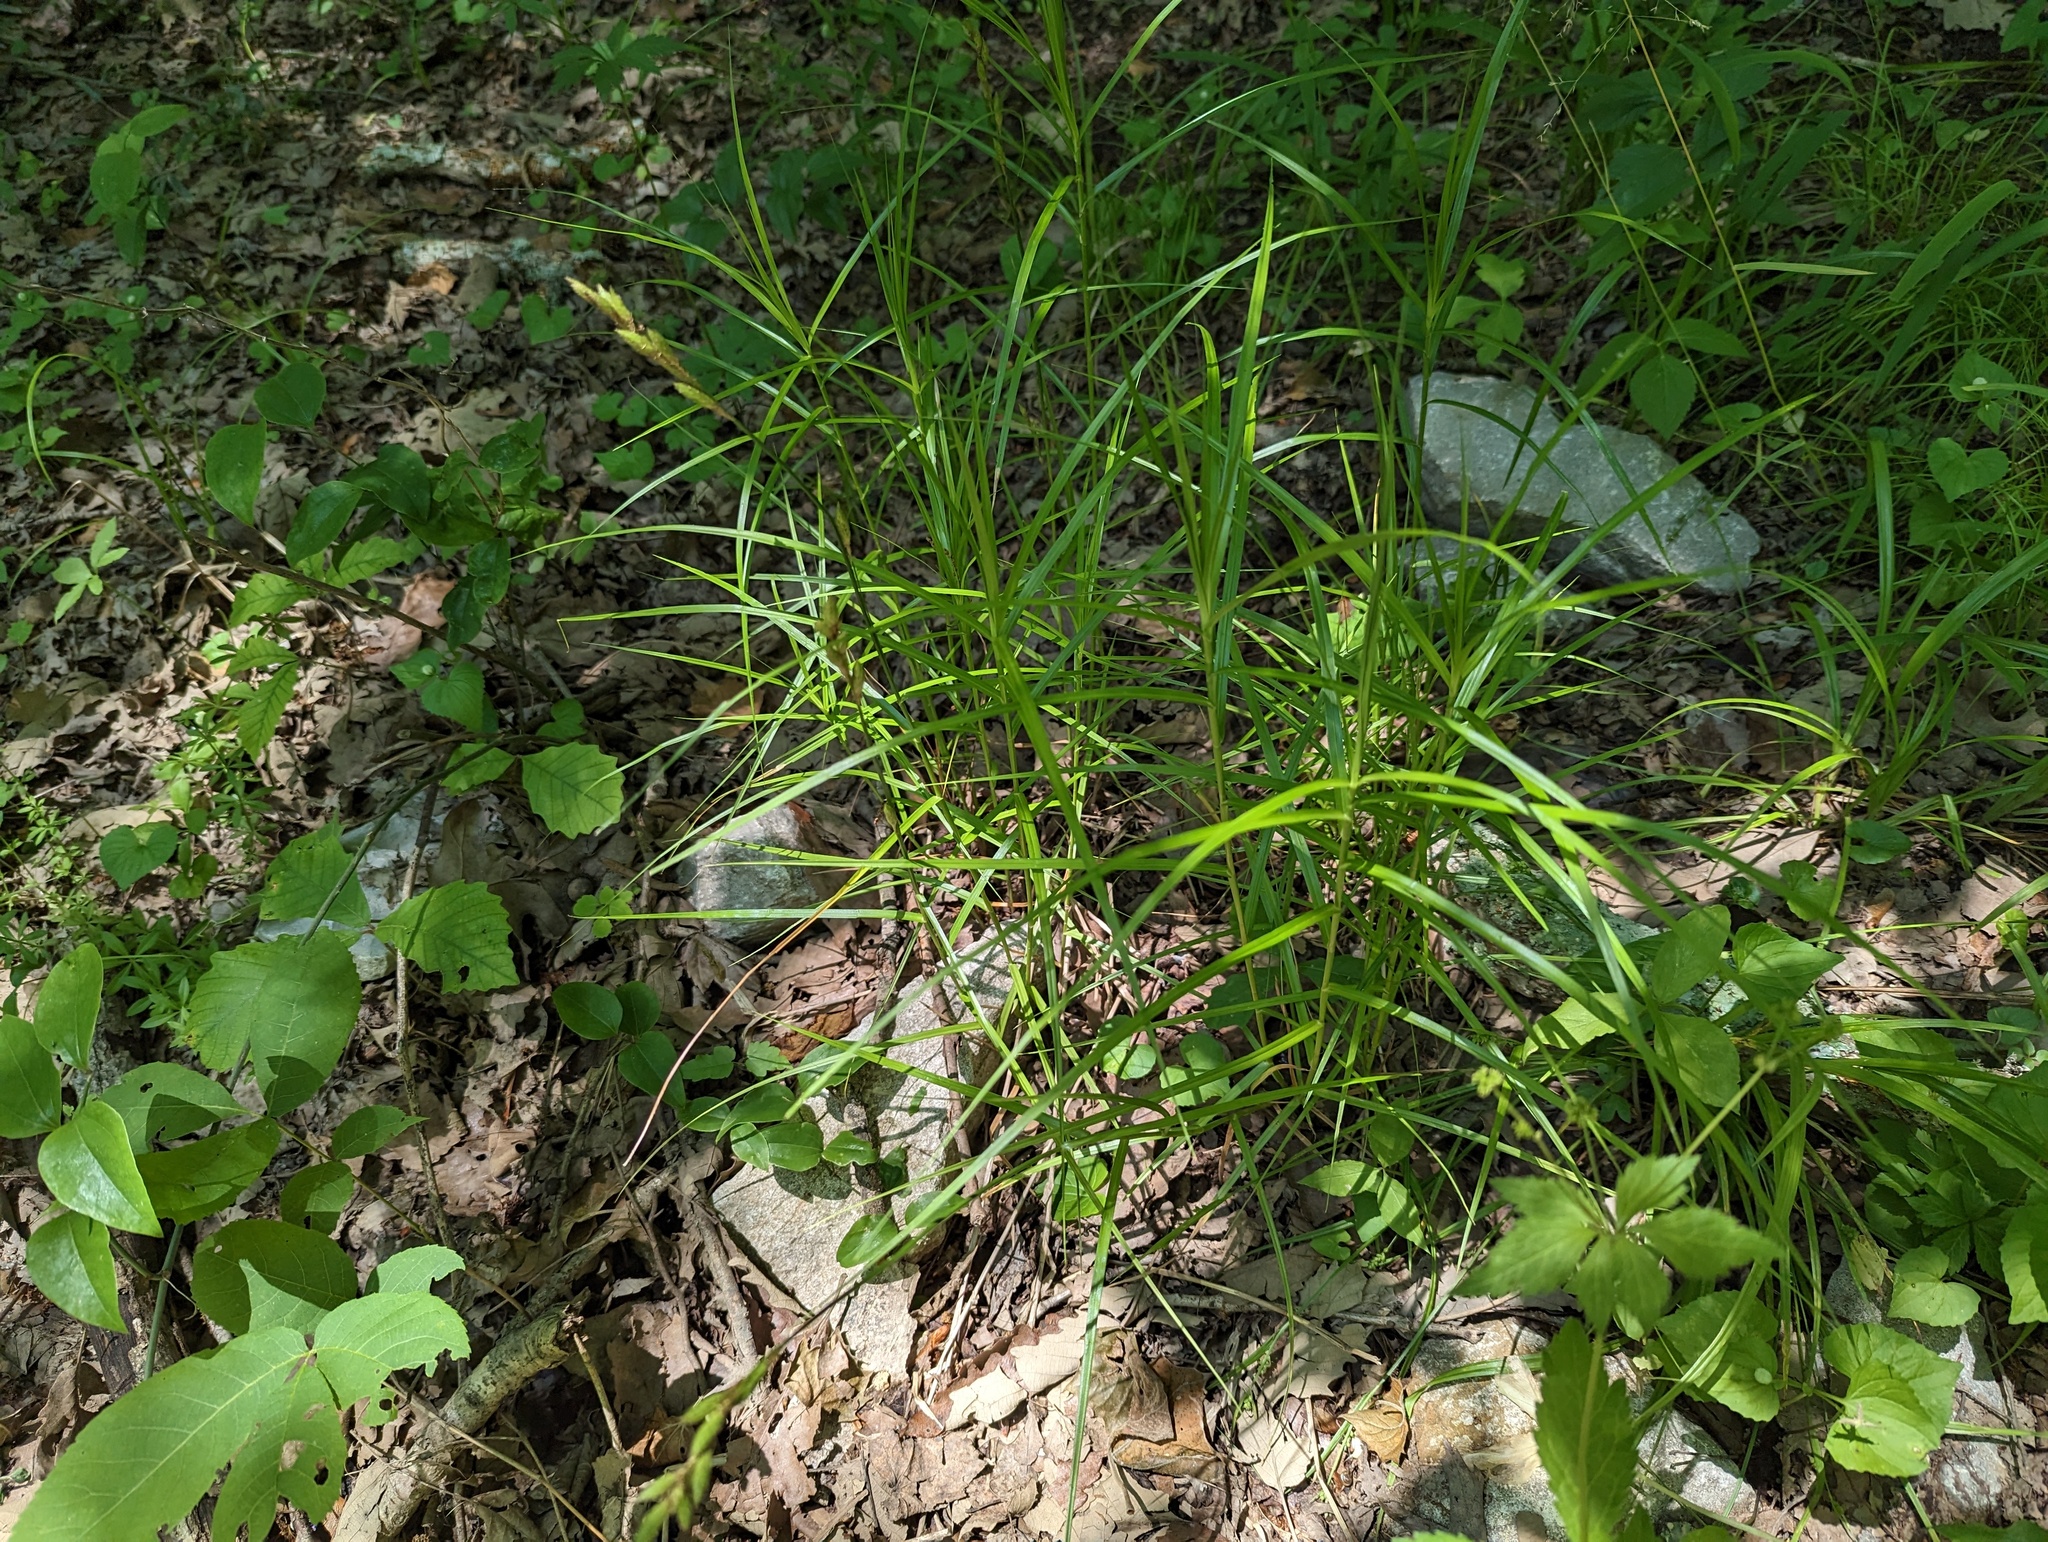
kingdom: Plantae
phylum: Tracheophyta
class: Liliopsida
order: Poales
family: Cyperaceae
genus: Carex
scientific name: Carex muskingumensis
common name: Muskingum sedge
